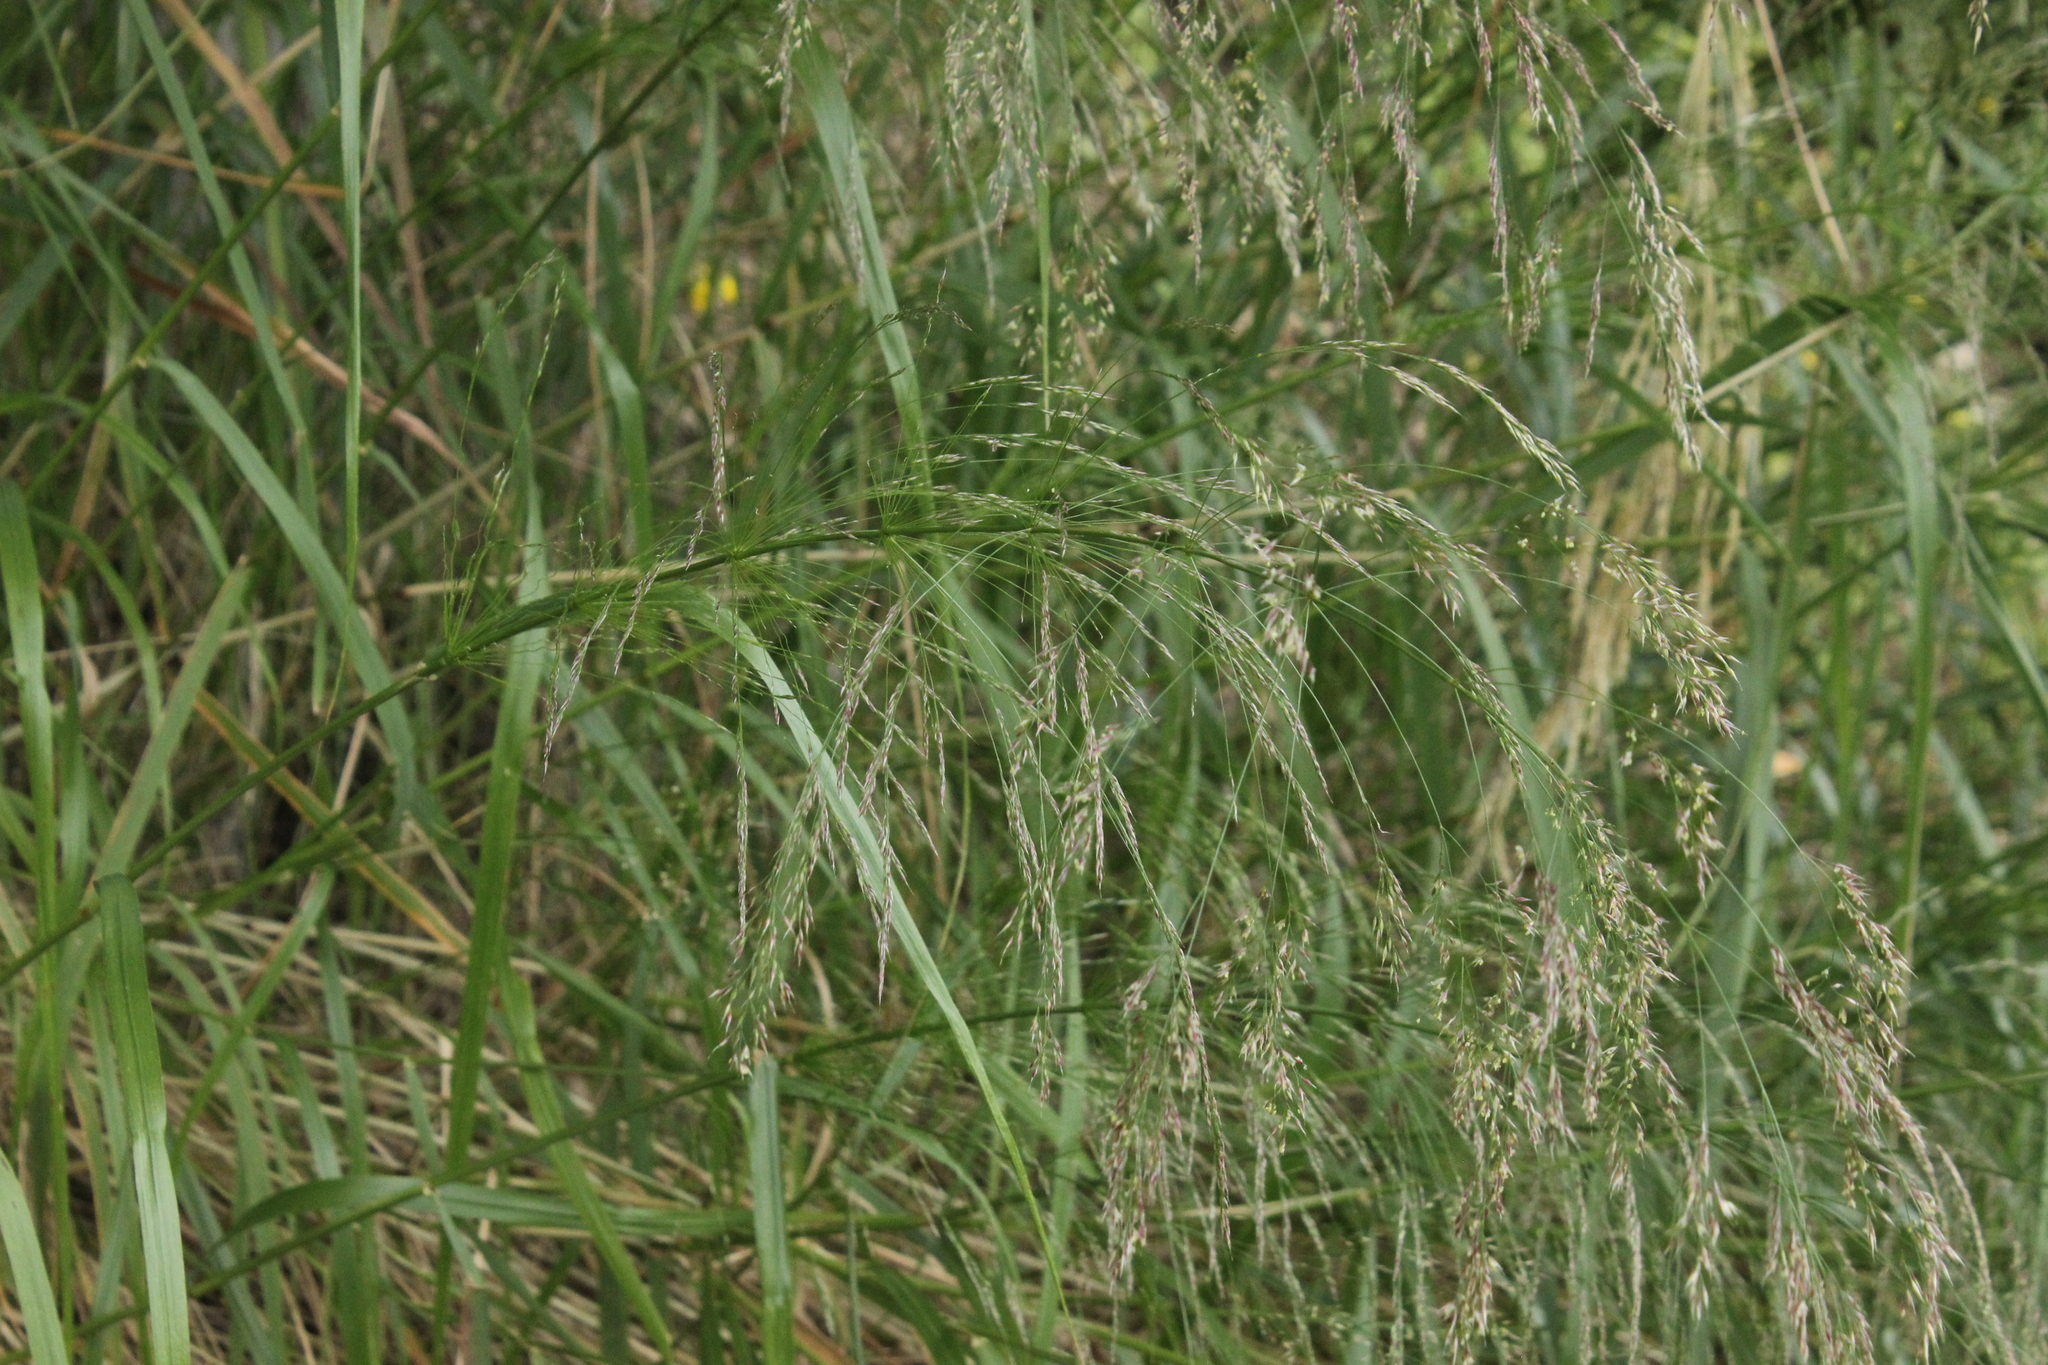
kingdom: Plantae
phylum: Tracheophyta
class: Liliopsida
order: Poales
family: Poaceae
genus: Oloptum
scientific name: Oloptum thomasii
